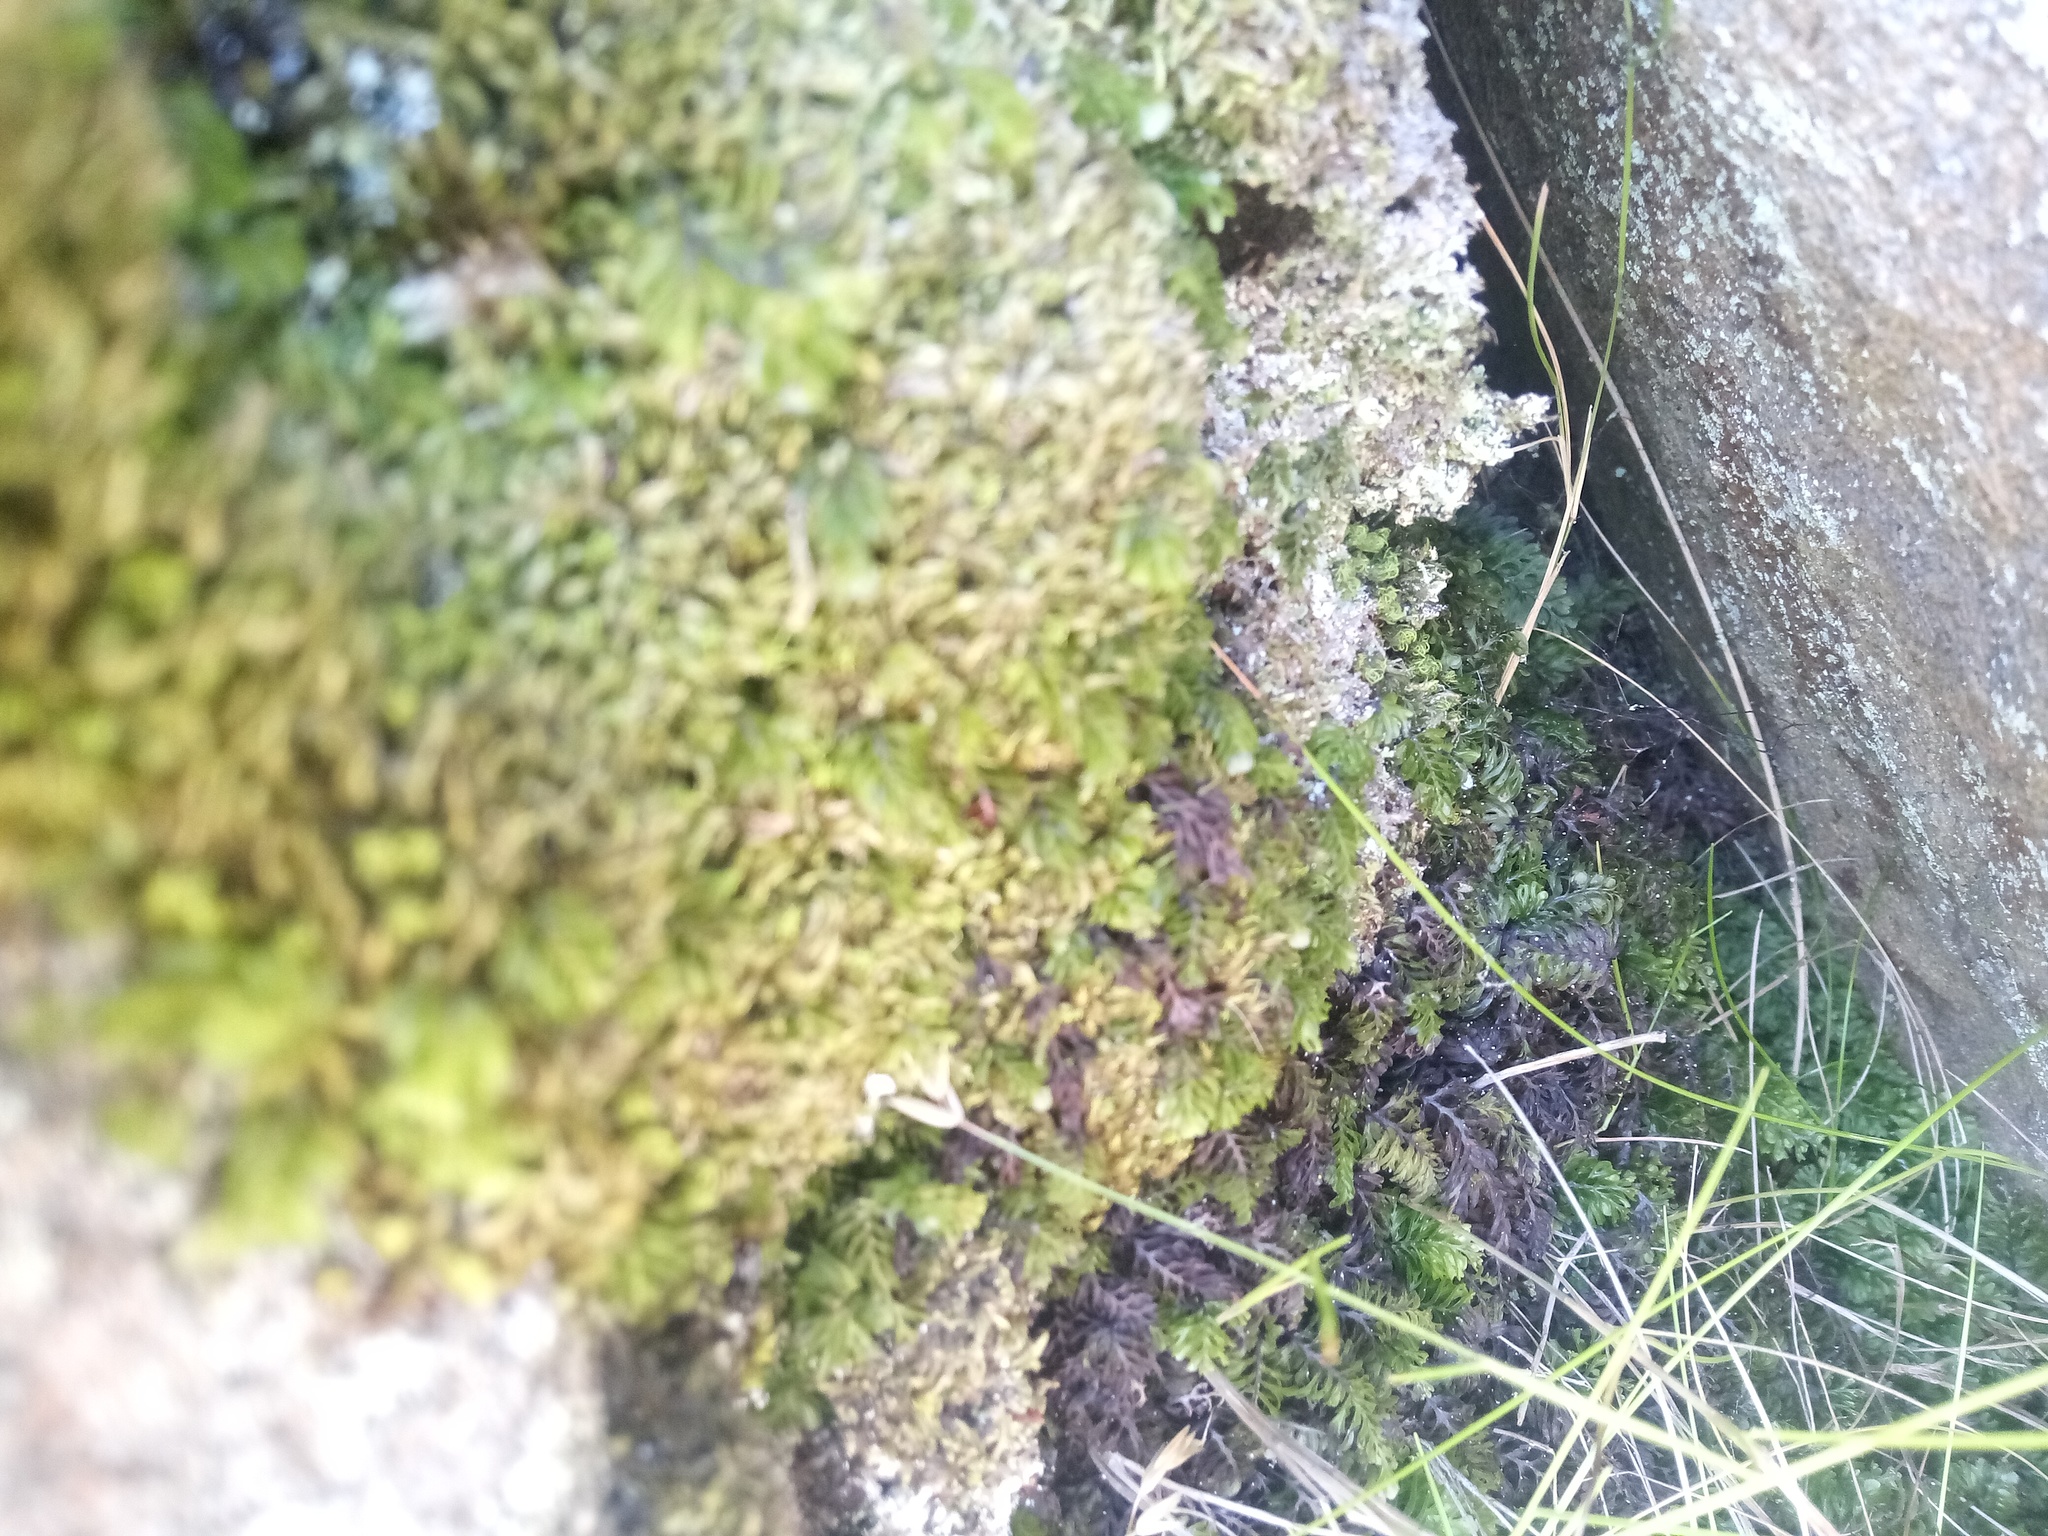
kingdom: Plantae
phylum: Tracheophyta
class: Polypodiopsida
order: Hymenophyllales
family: Hymenophyllaceae
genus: Hymenophyllum
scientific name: Hymenophyllum capense
